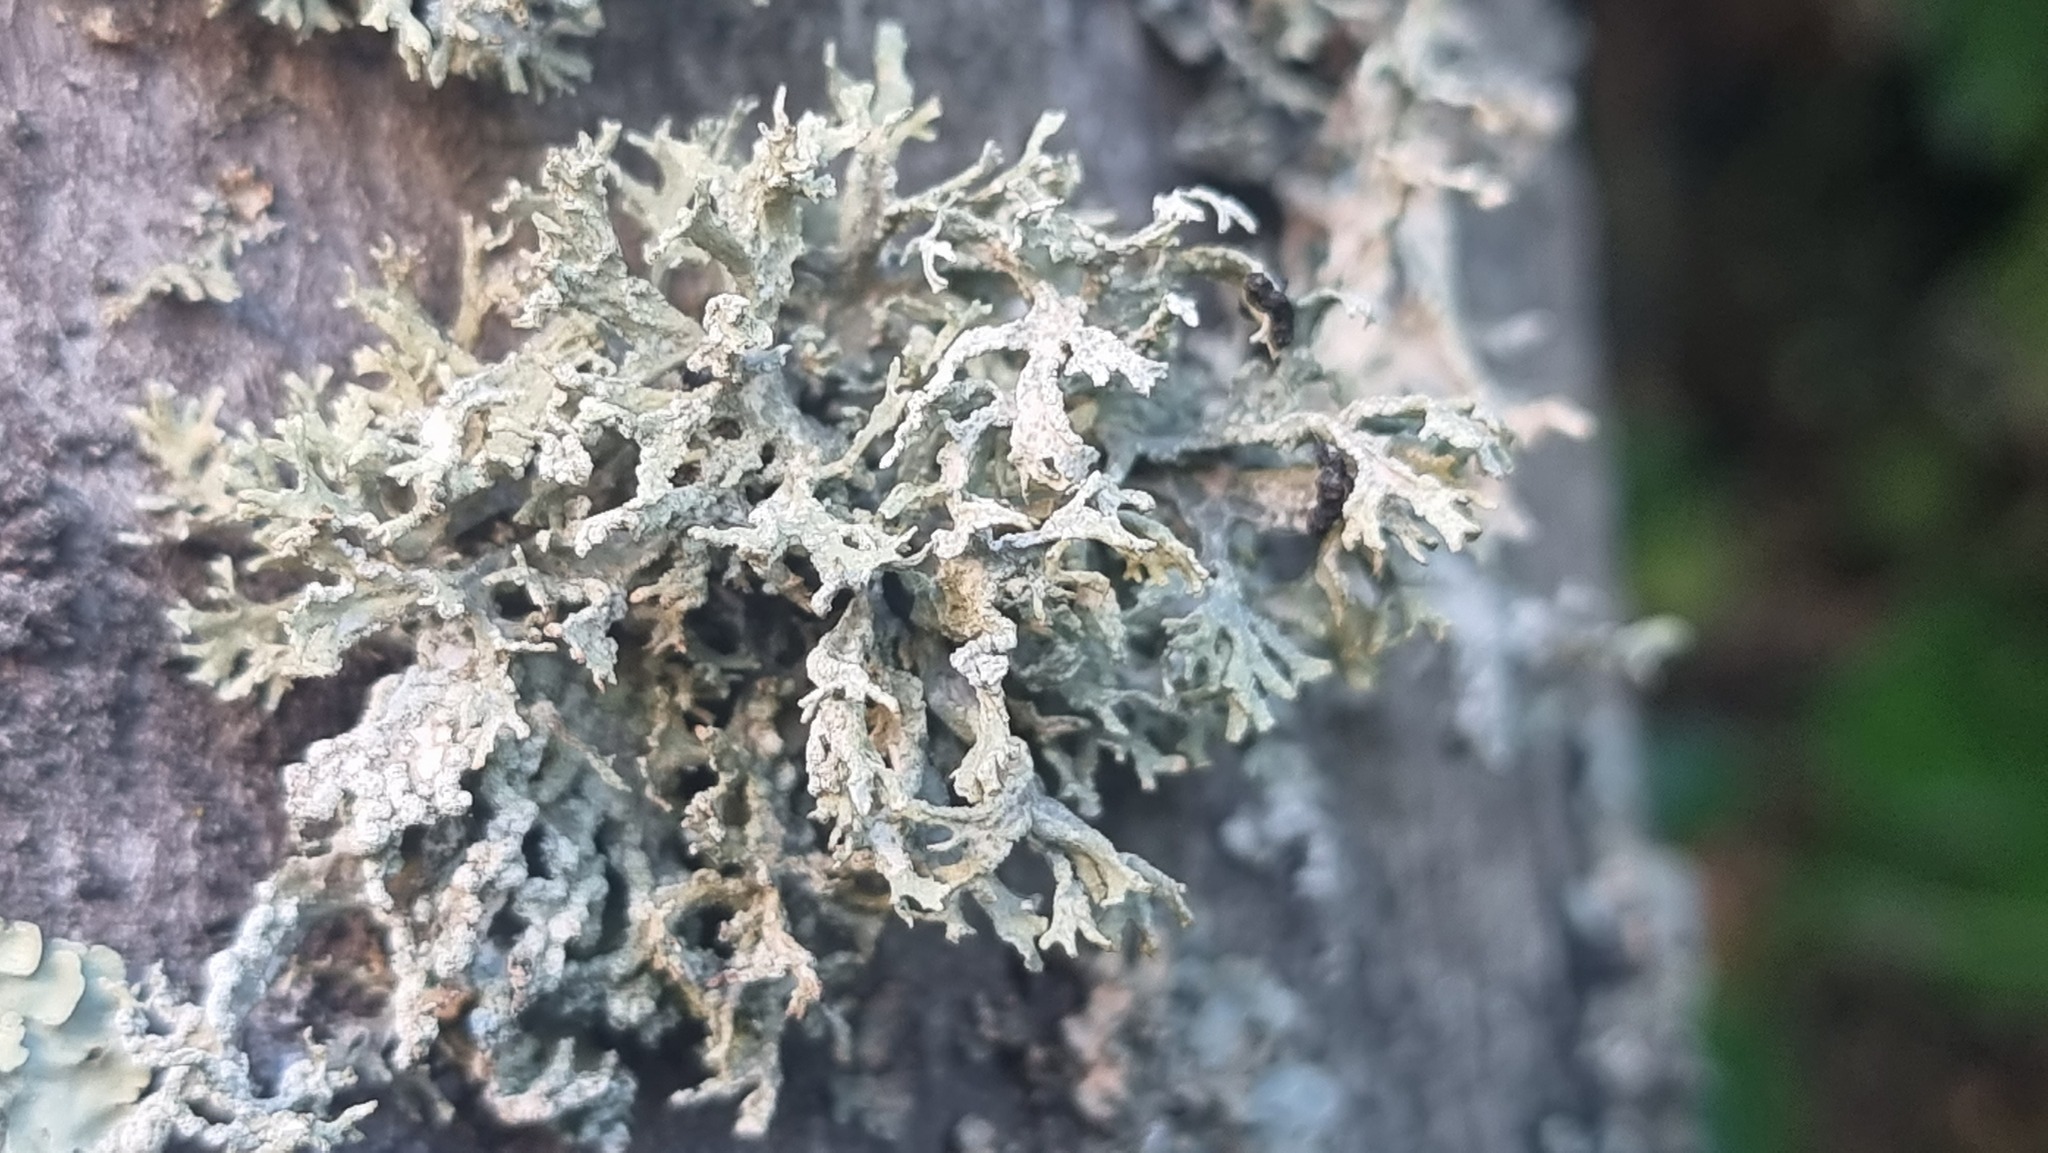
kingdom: Fungi
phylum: Ascomycota
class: Lecanoromycetes
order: Lecanorales
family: Parmeliaceae
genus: Evernia
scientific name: Evernia prunastri
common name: Oak moss
